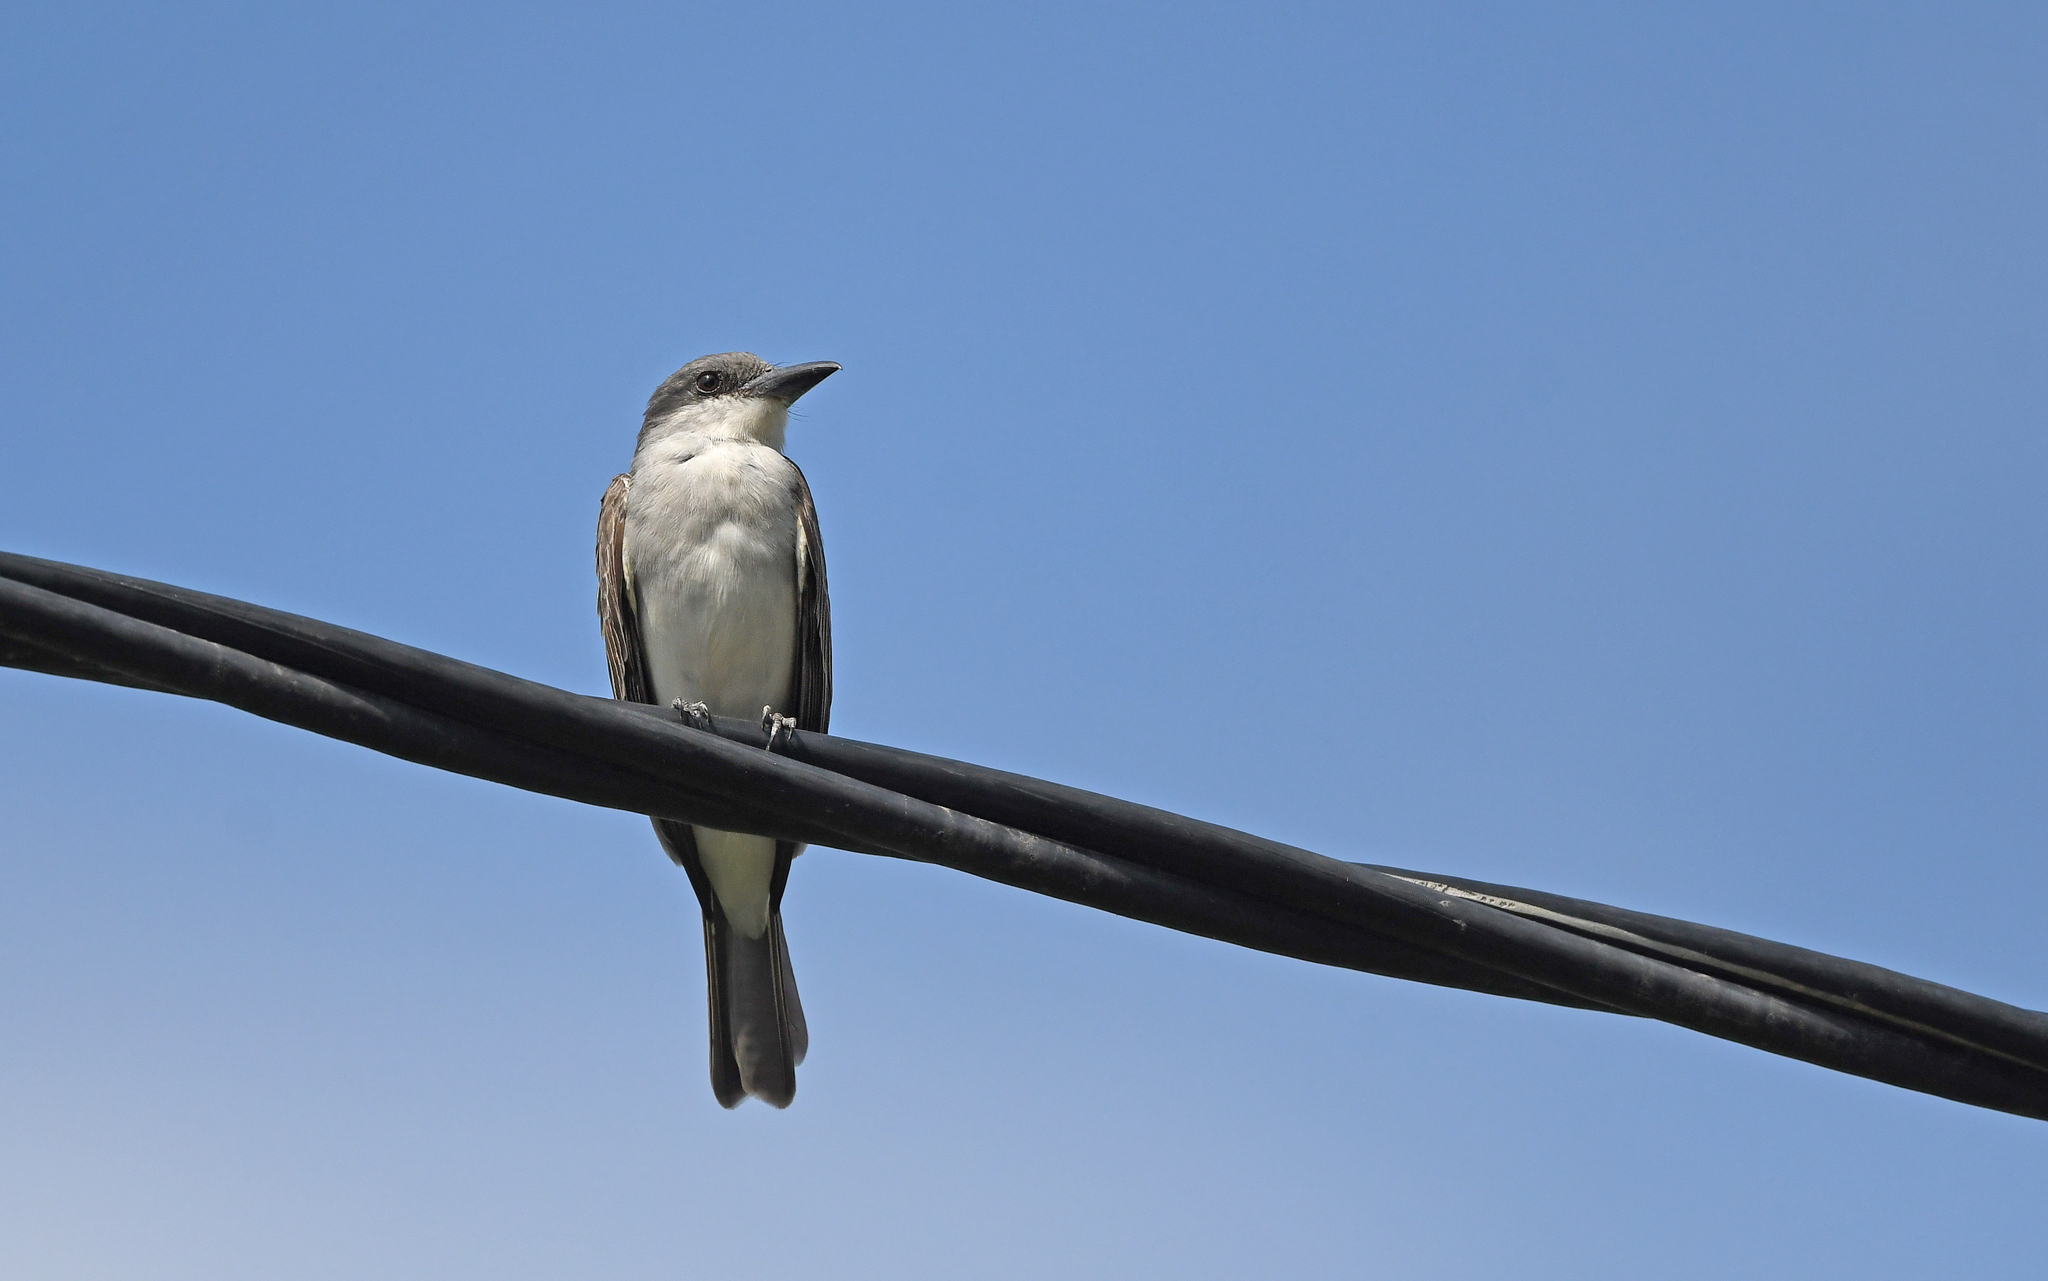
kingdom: Animalia
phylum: Chordata
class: Aves
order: Passeriformes
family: Tyrannidae
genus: Tyrannus
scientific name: Tyrannus dominicensis
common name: Gray kingbird
